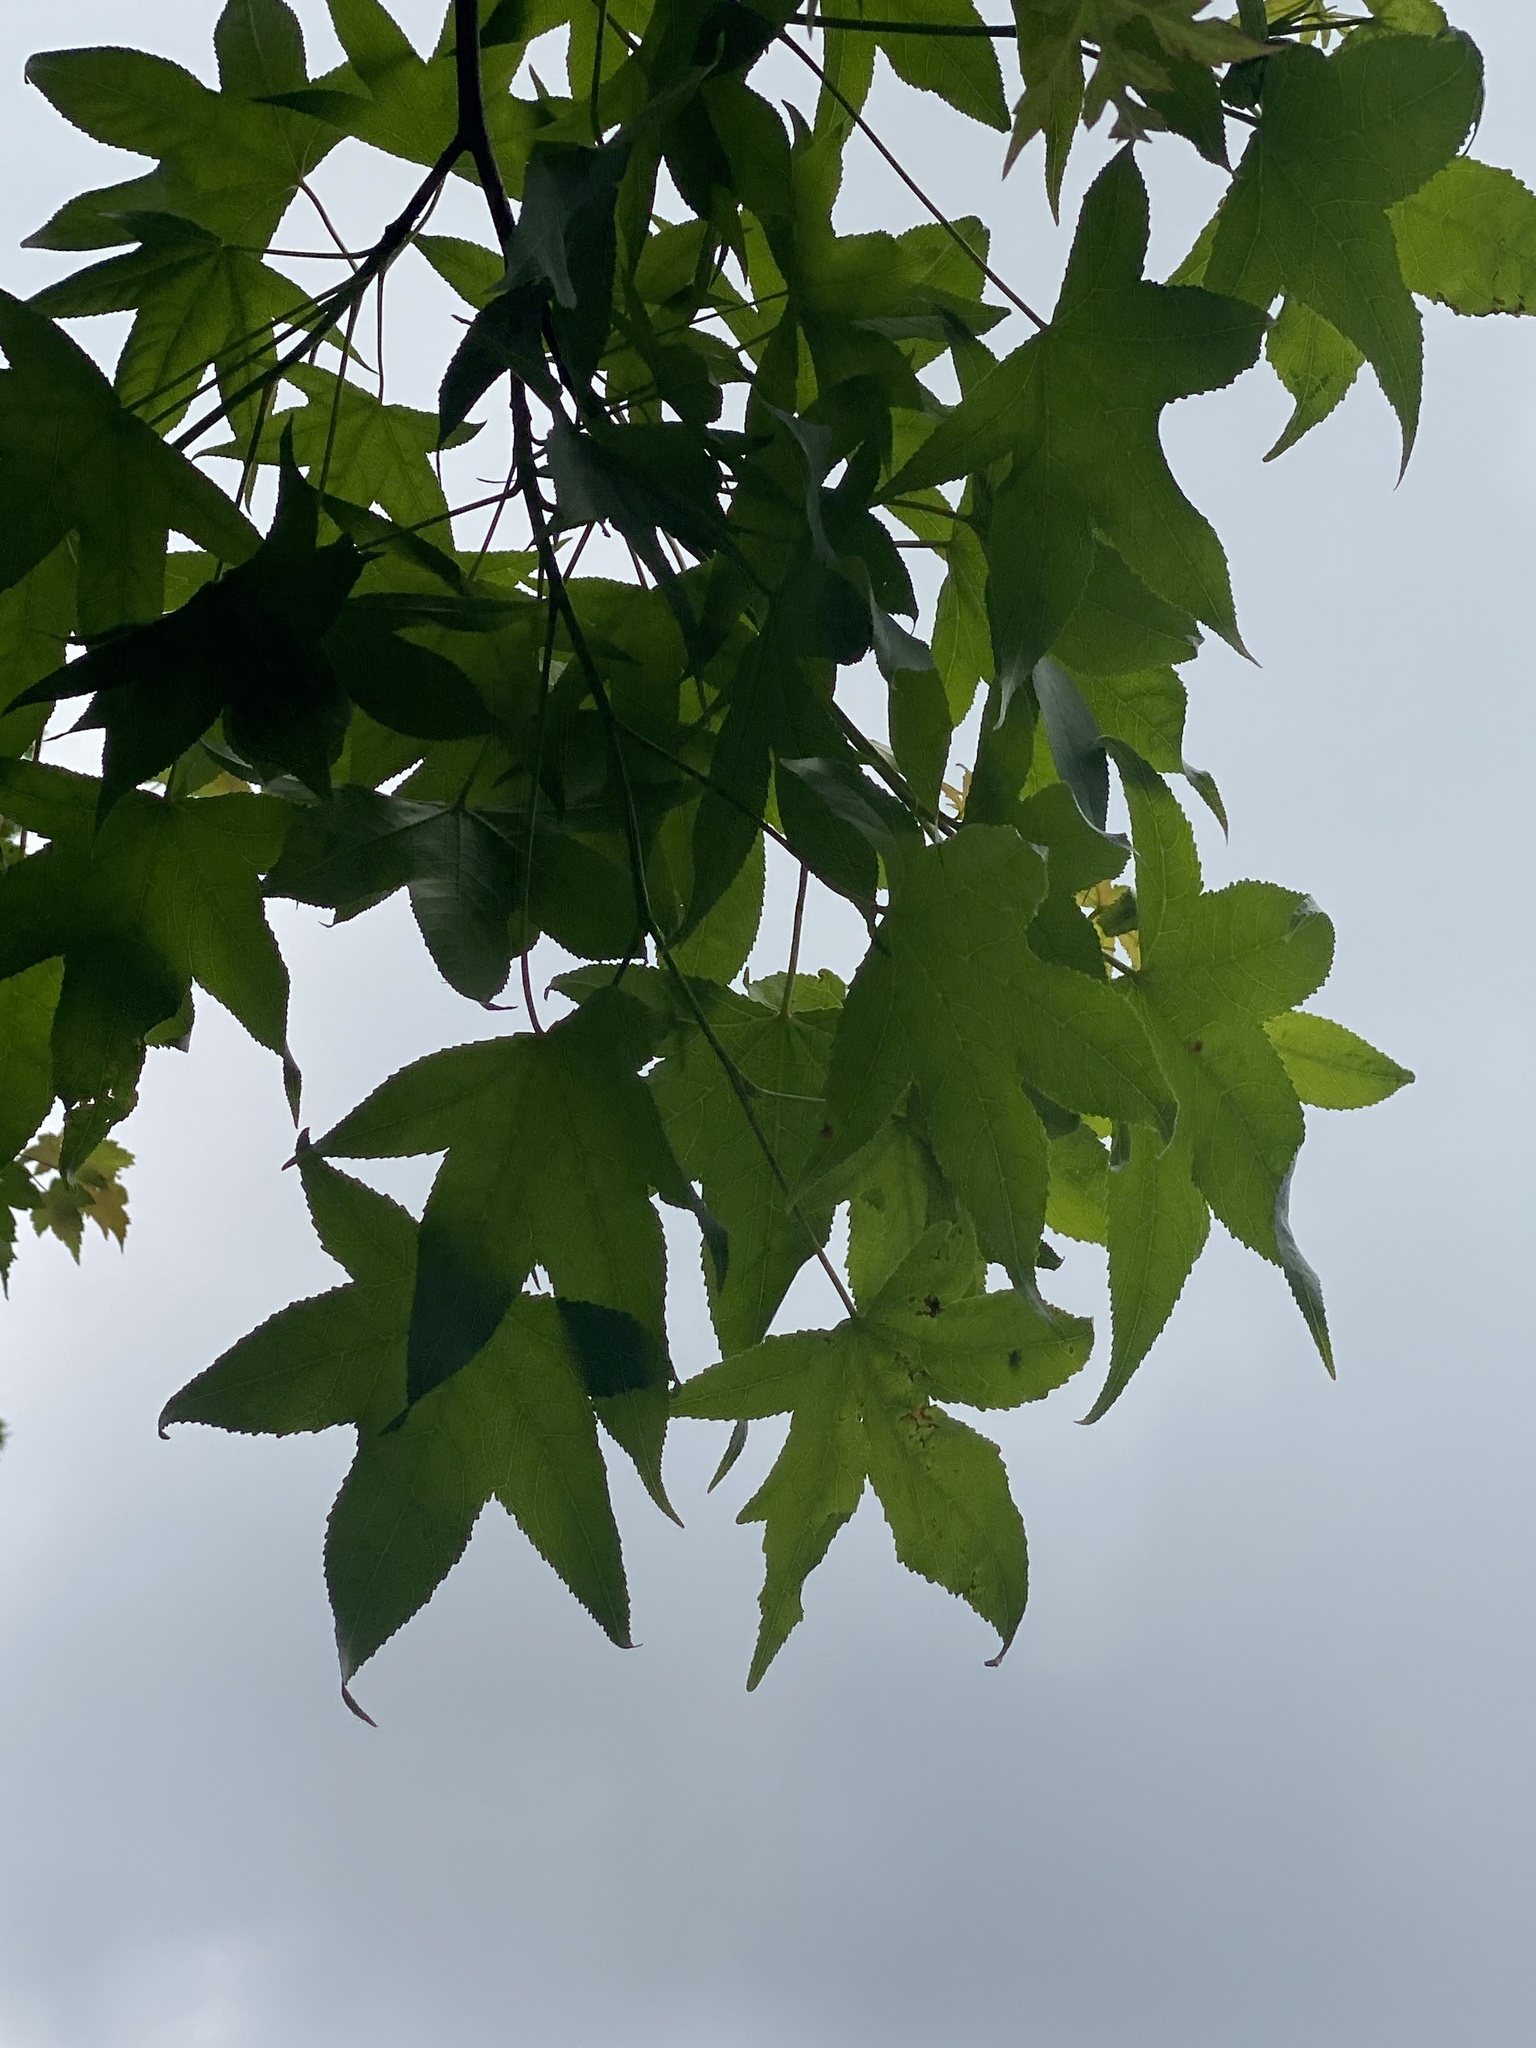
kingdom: Plantae
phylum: Tracheophyta
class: Magnoliopsida
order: Saxifragales
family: Altingiaceae
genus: Liquidambar
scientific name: Liquidambar styraciflua
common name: Sweet gum
